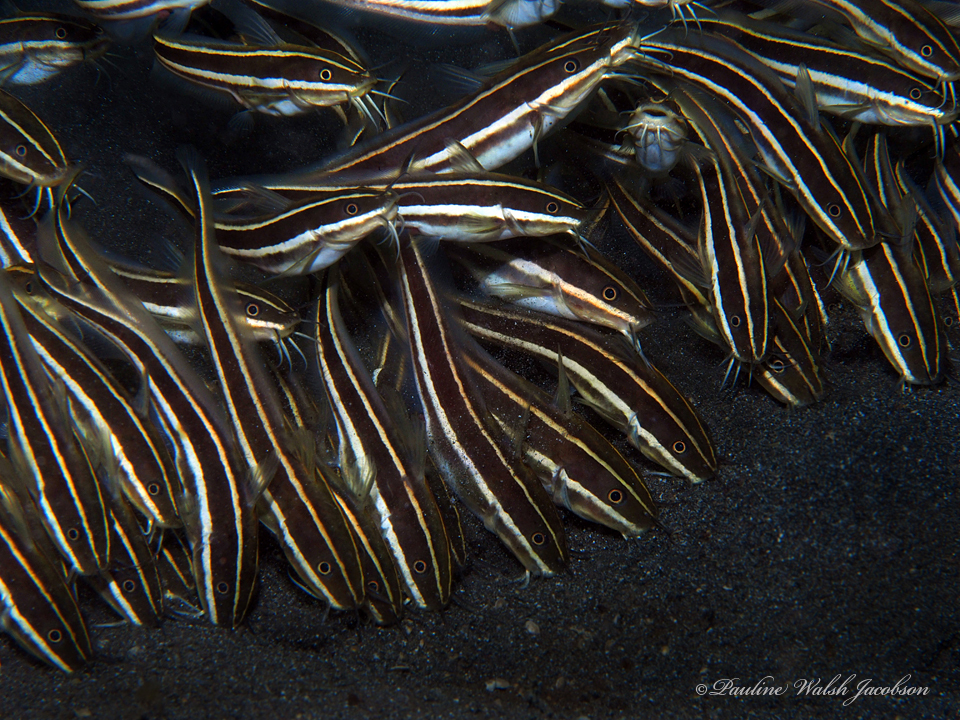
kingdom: Animalia
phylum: Chordata
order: Siluriformes
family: Plotosidae
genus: Plotosus
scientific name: Plotosus lineatus
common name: Striped eel catfish
